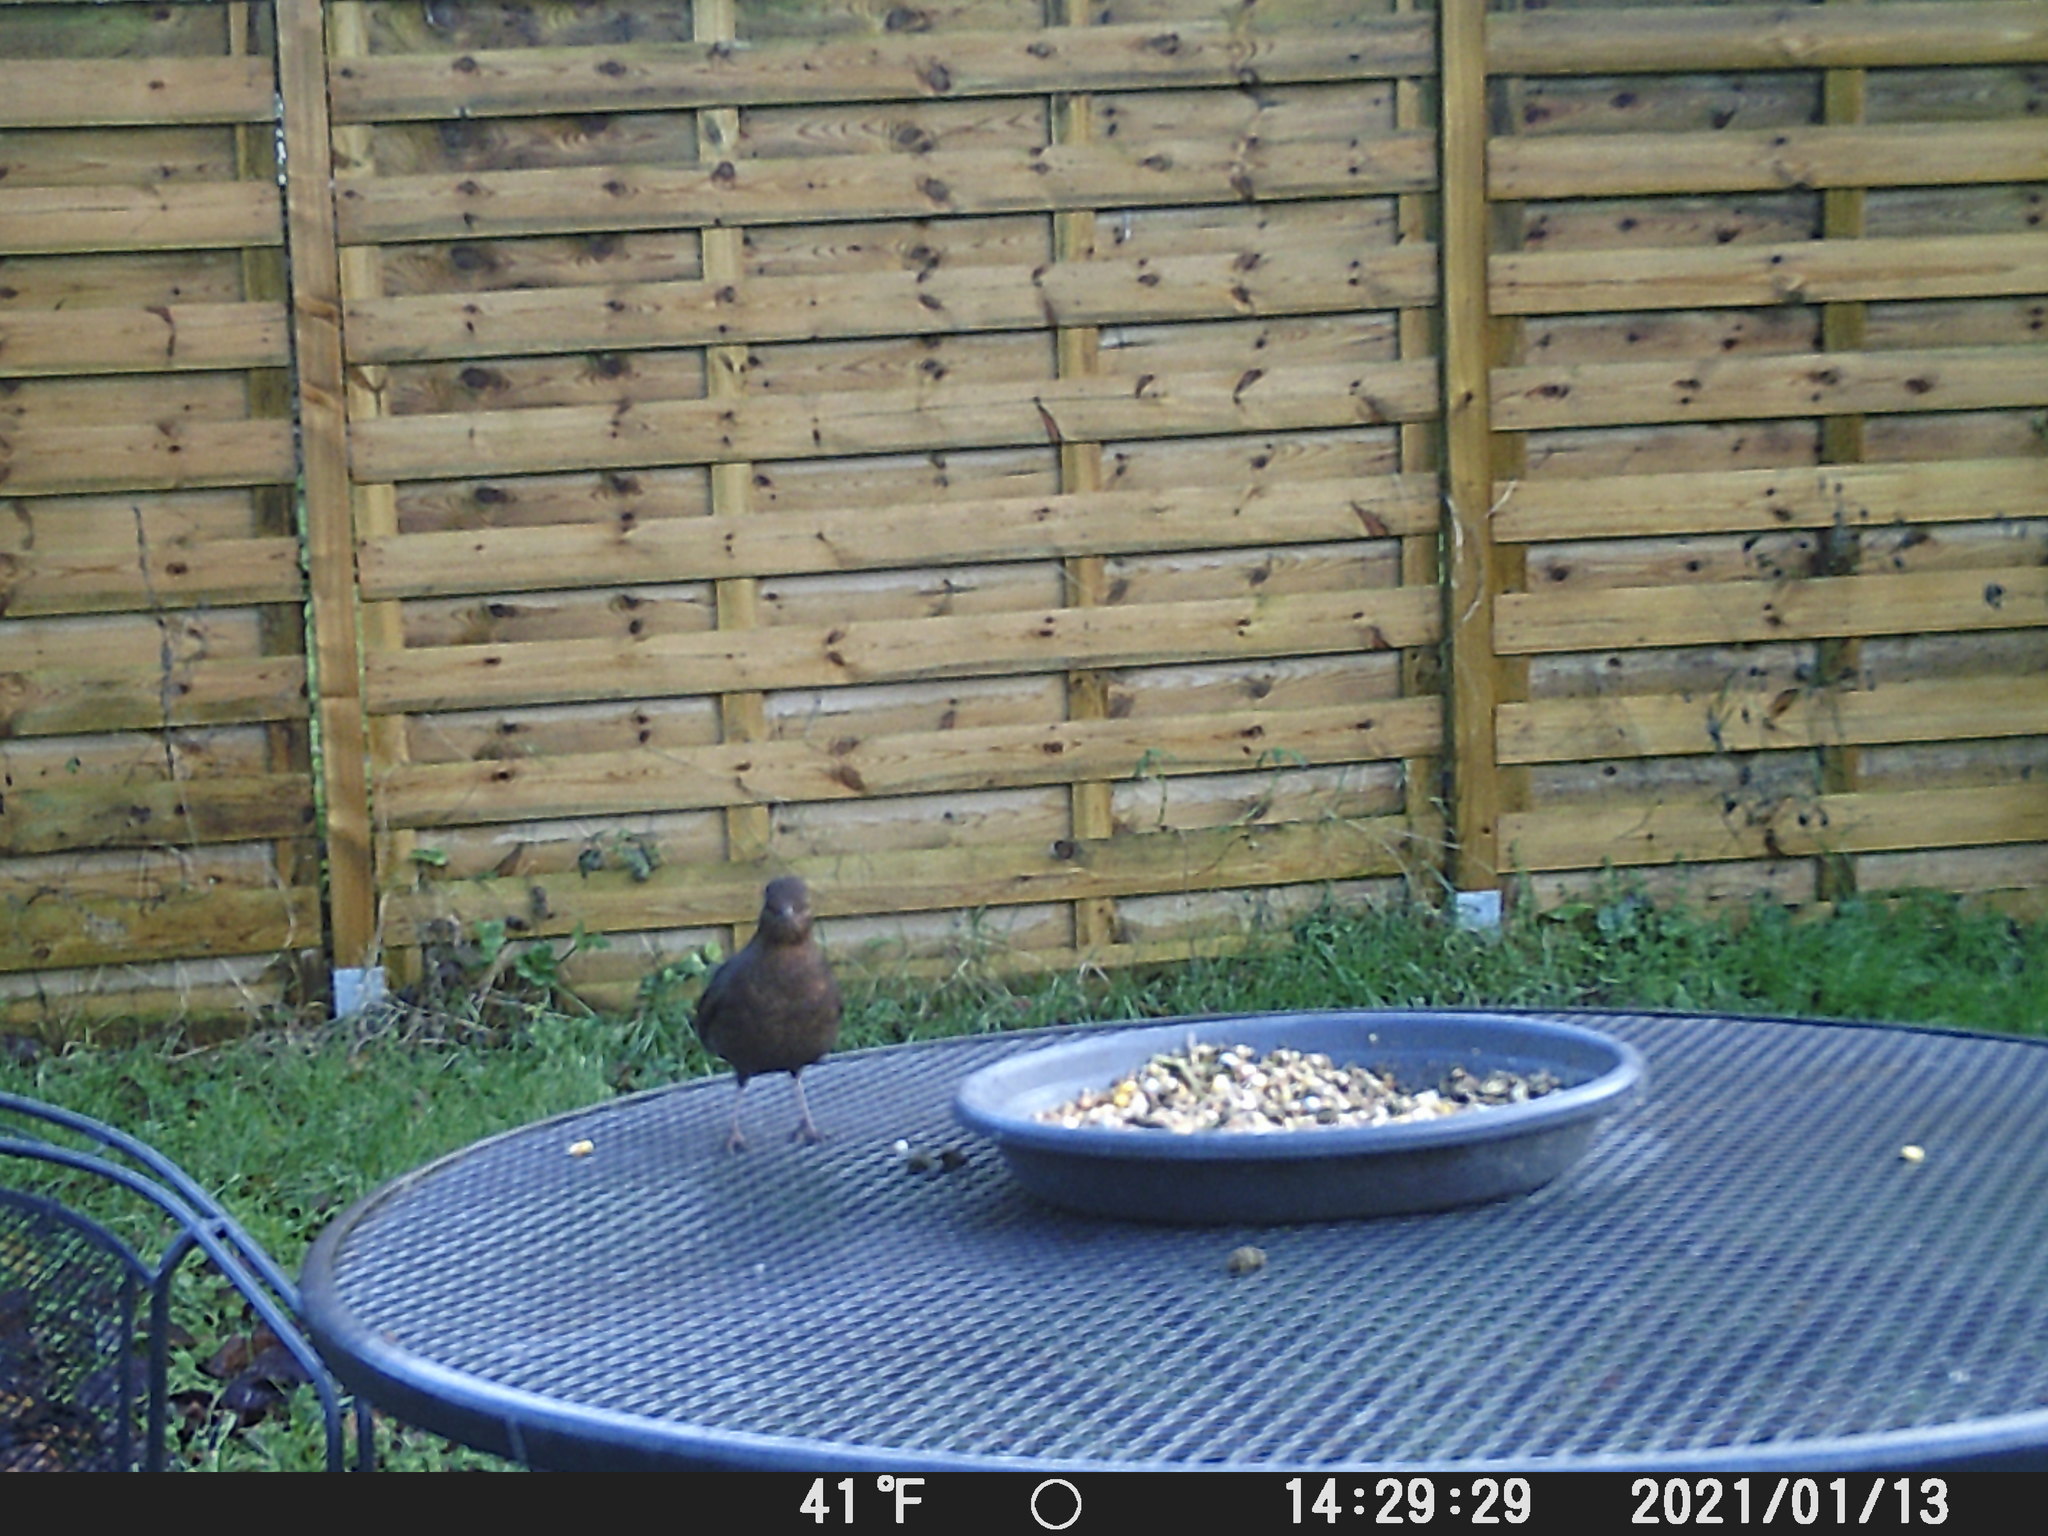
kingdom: Animalia
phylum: Chordata
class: Aves
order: Passeriformes
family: Turdidae
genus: Turdus
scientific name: Turdus merula
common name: Common blackbird
